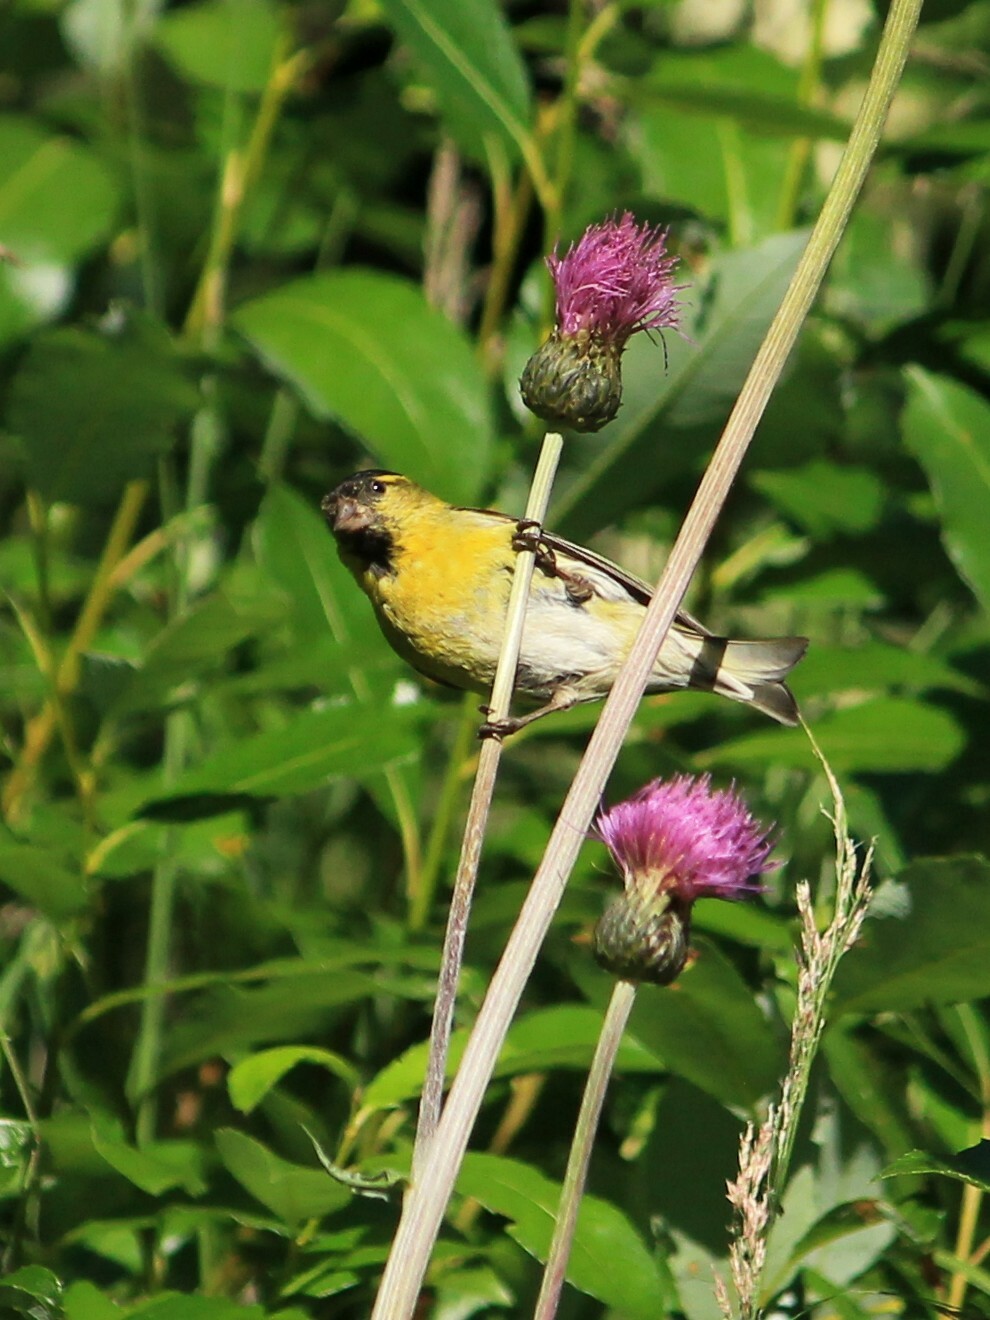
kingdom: Animalia
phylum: Chordata
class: Aves
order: Passeriformes
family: Fringillidae
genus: Spinus
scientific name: Spinus spinus
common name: Eurasian siskin
